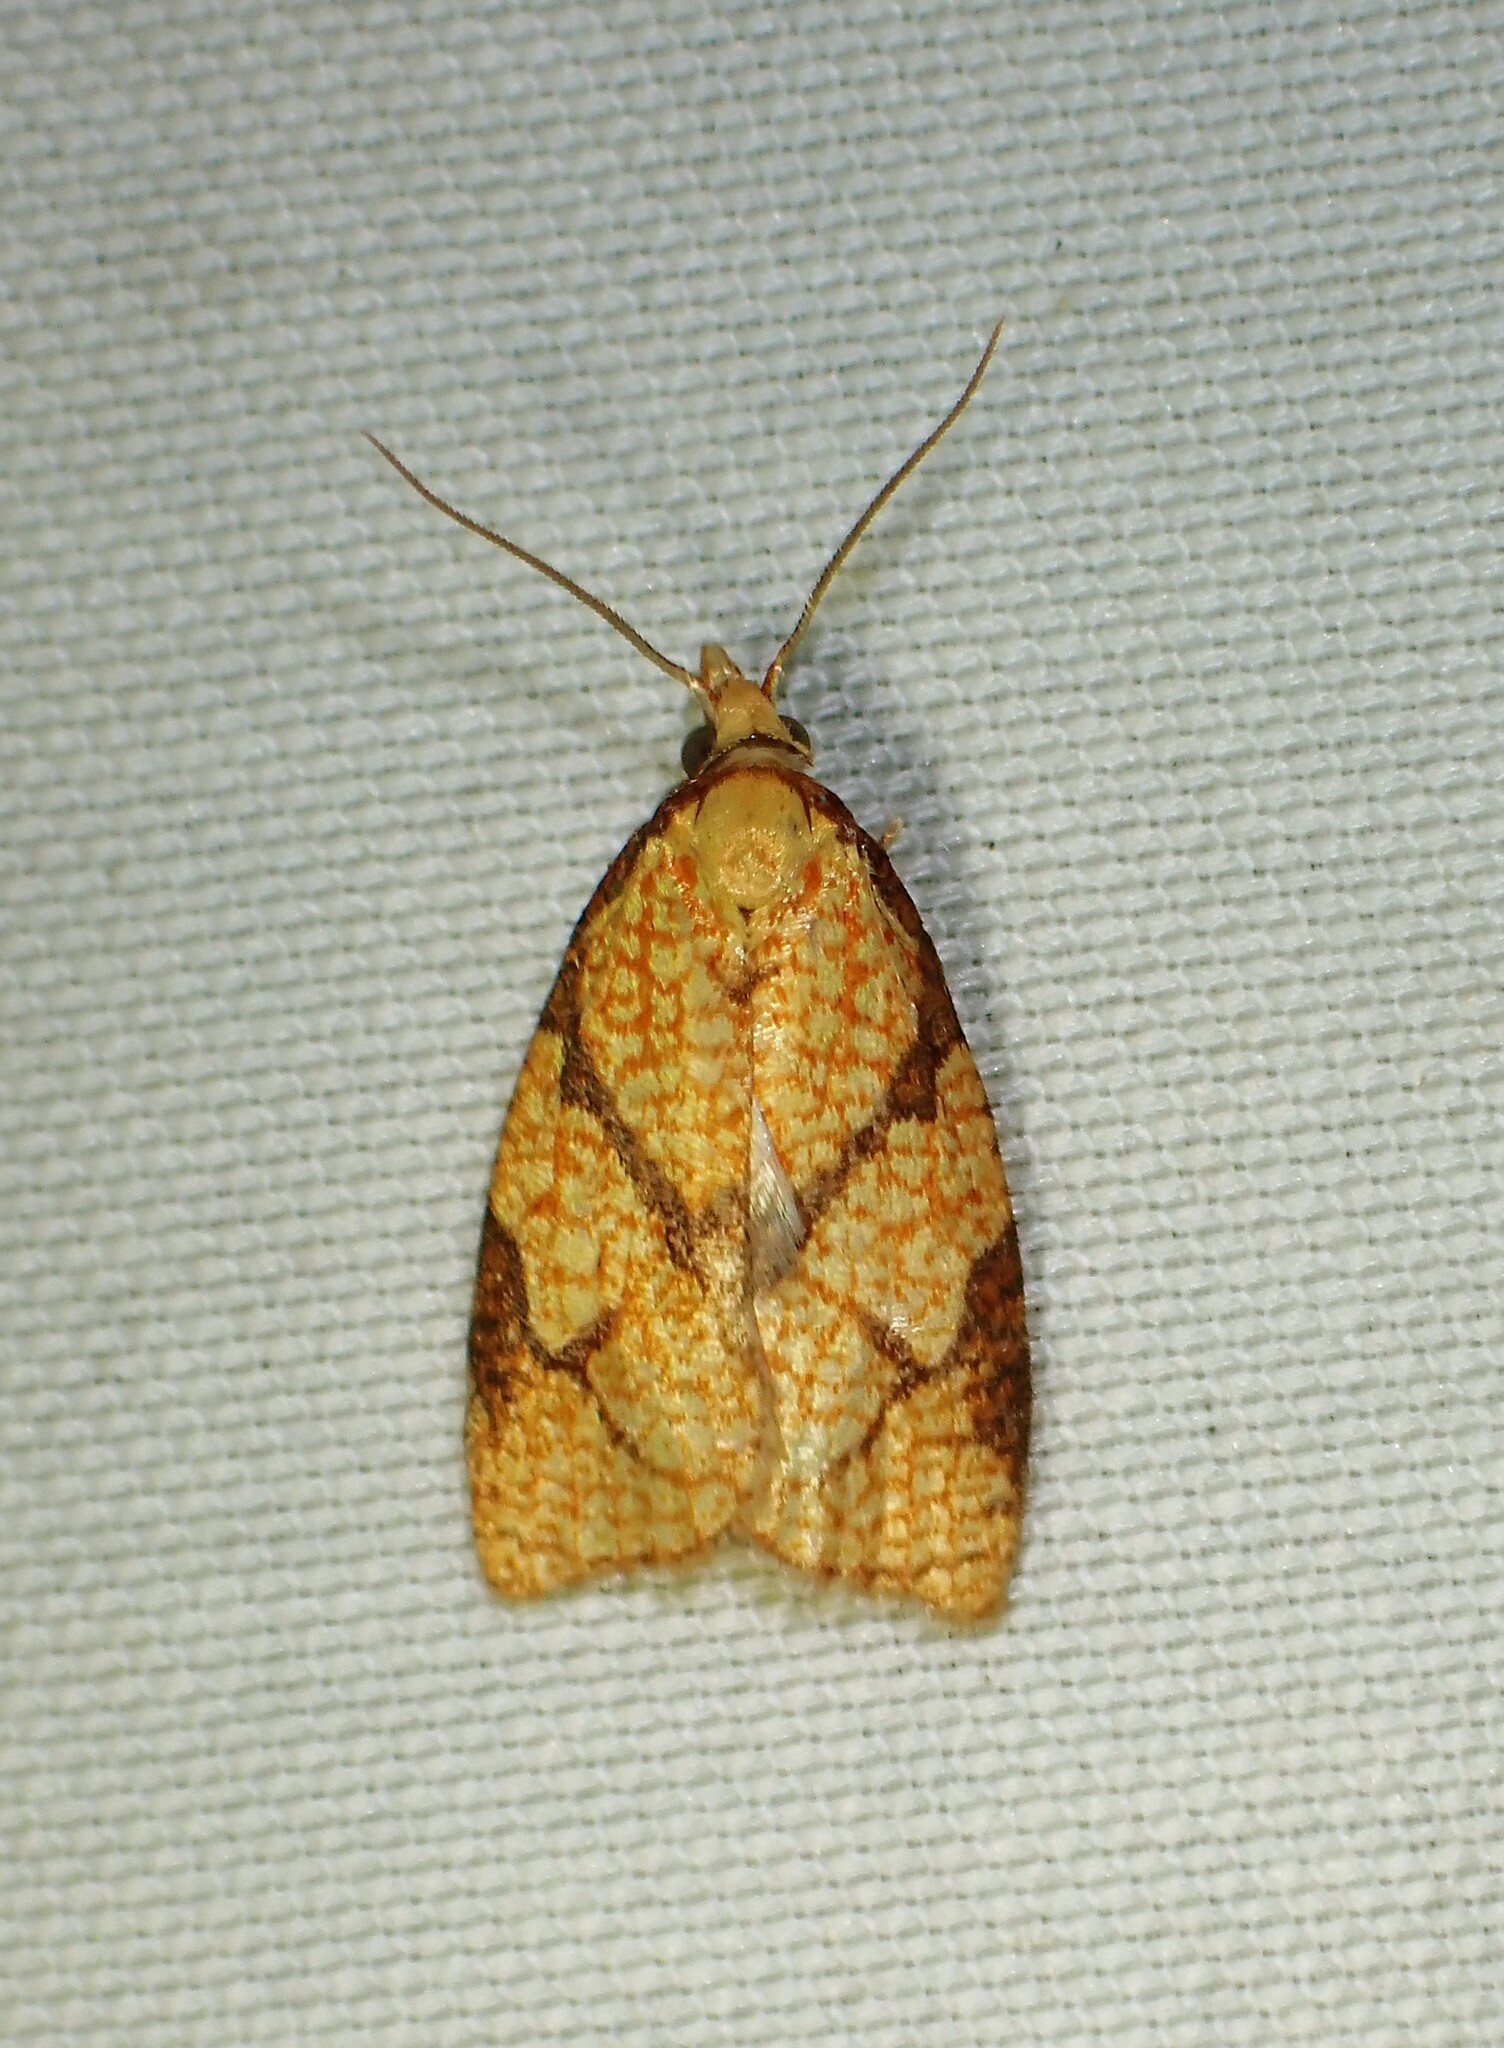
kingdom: Animalia
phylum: Arthropoda
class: Insecta
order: Lepidoptera
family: Tortricidae
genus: Cenopis
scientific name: Cenopis reticulatana
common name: Reticulated fruitworm moth
